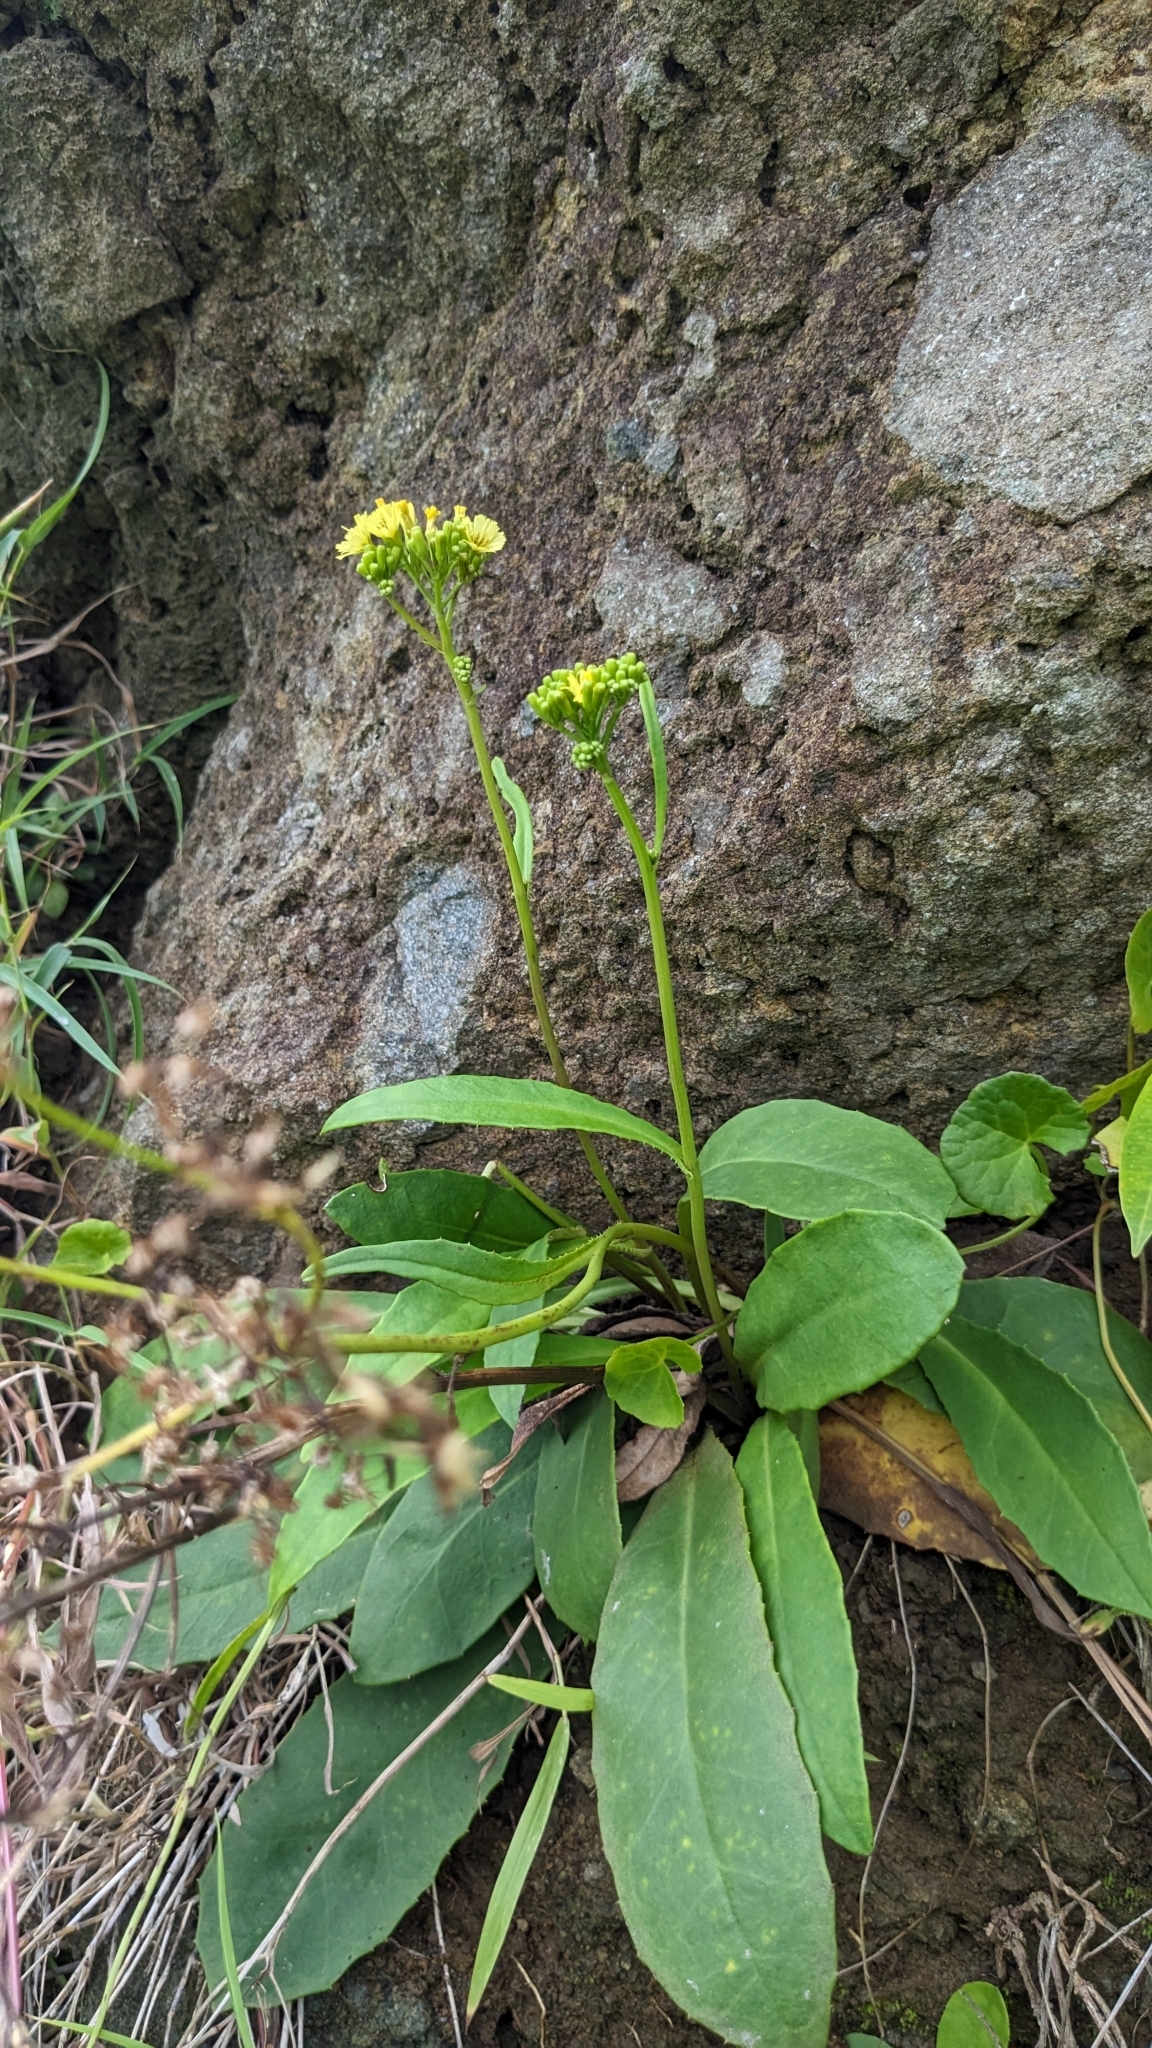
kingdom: Plantae
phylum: Tracheophyta
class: Magnoliopsida
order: Asterales
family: Asteraceae
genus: Ixeridium
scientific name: Ixeridium laevigatum
